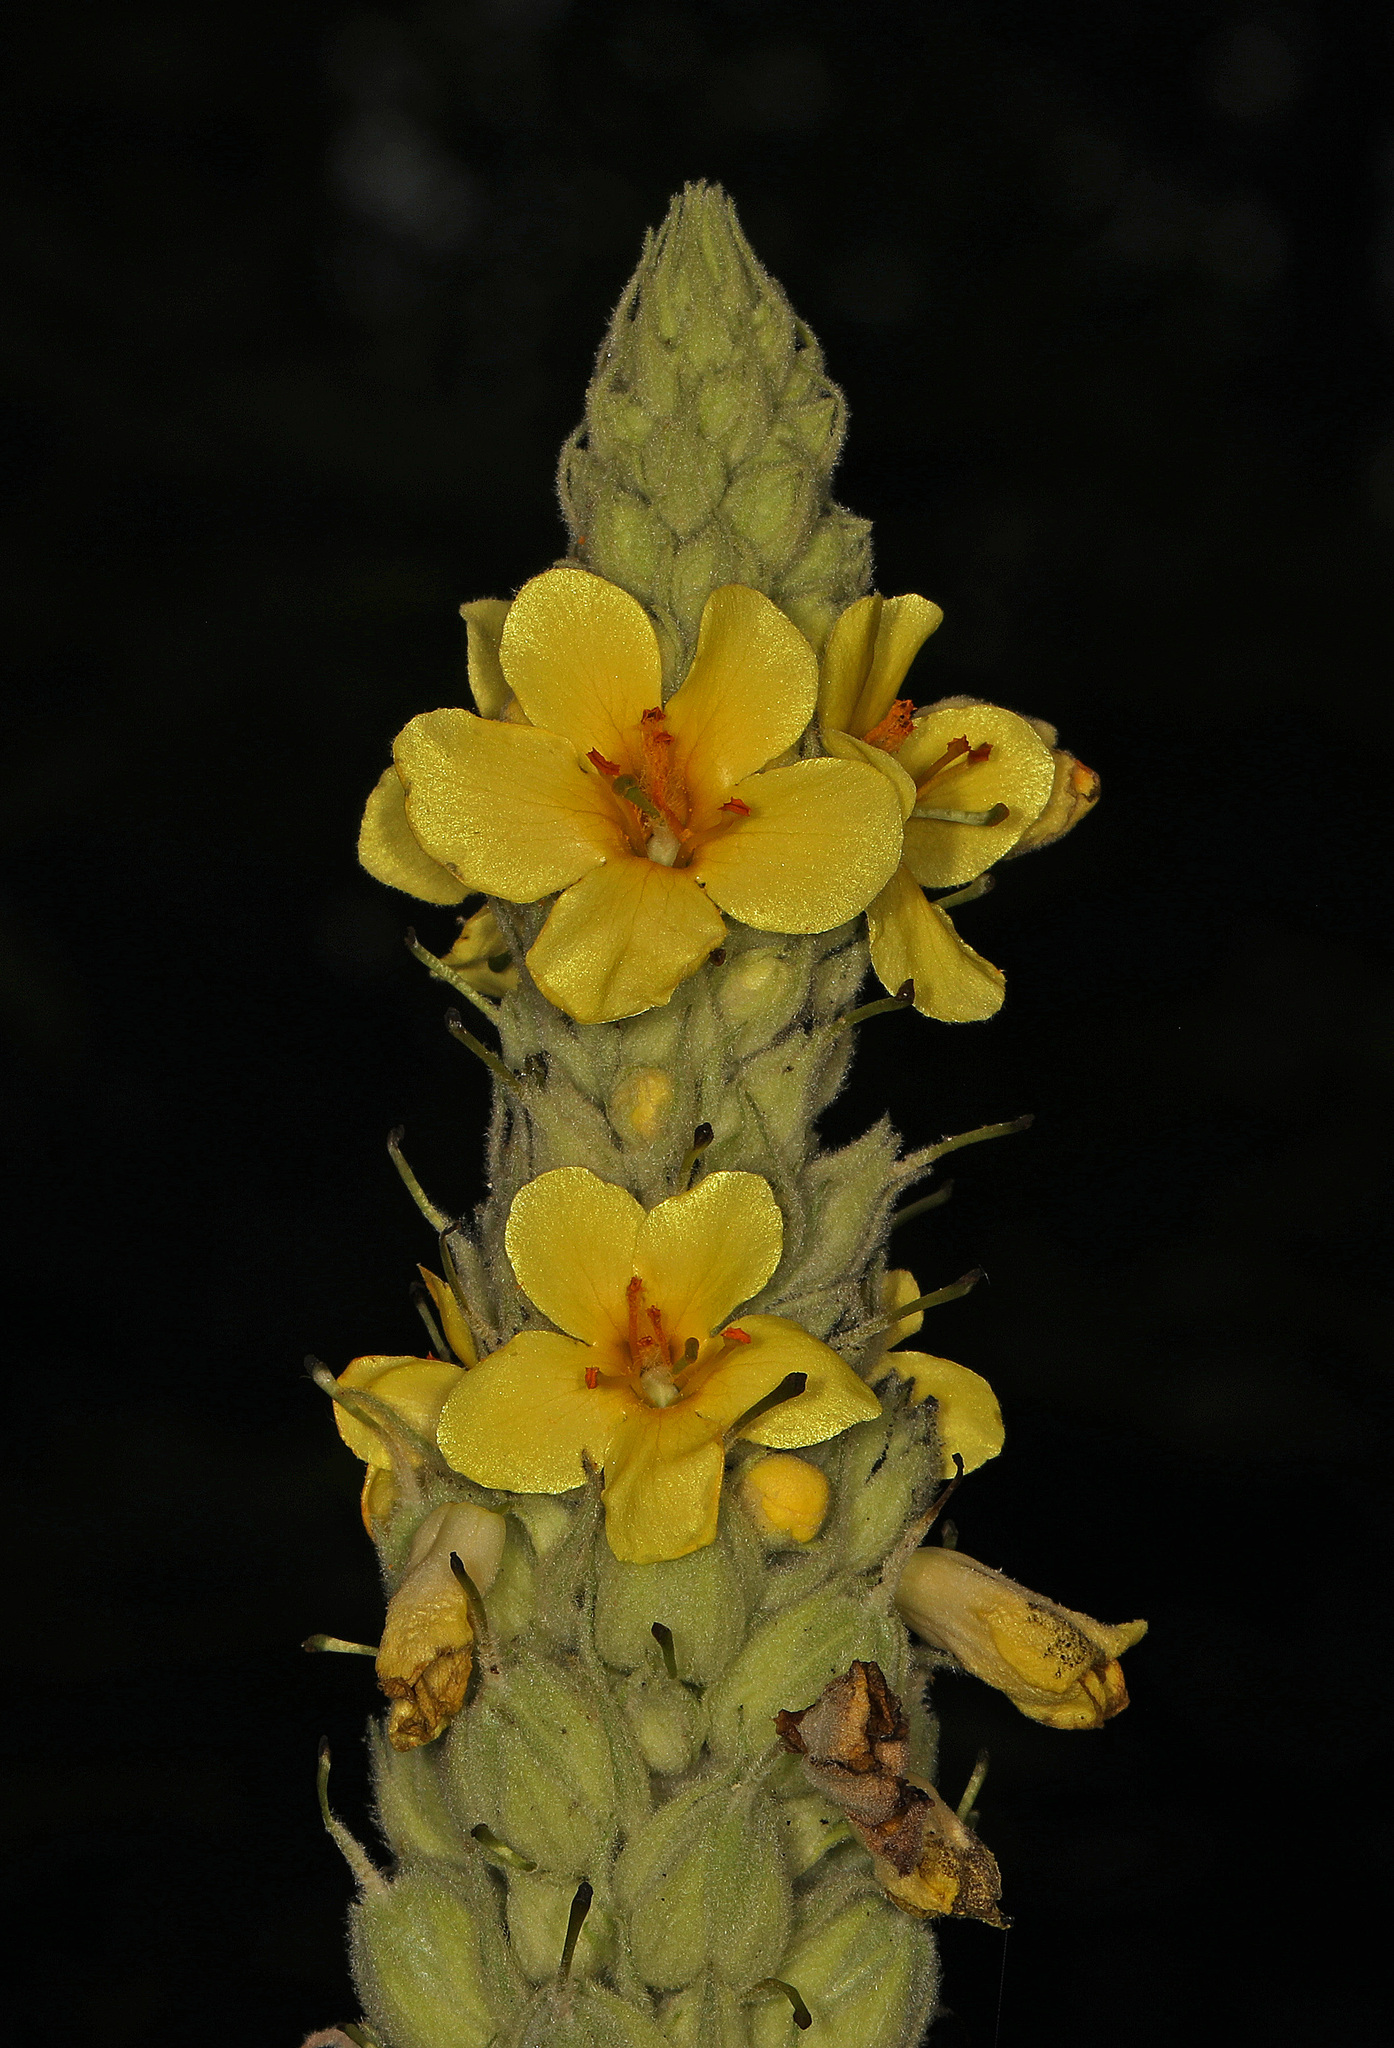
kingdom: Plantae
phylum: Tracheophyta
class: Magnoliopsida
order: Lamiales
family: Scrophulariaceae
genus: Verbascum
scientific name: Verbascum thapsus
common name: Common mullein
